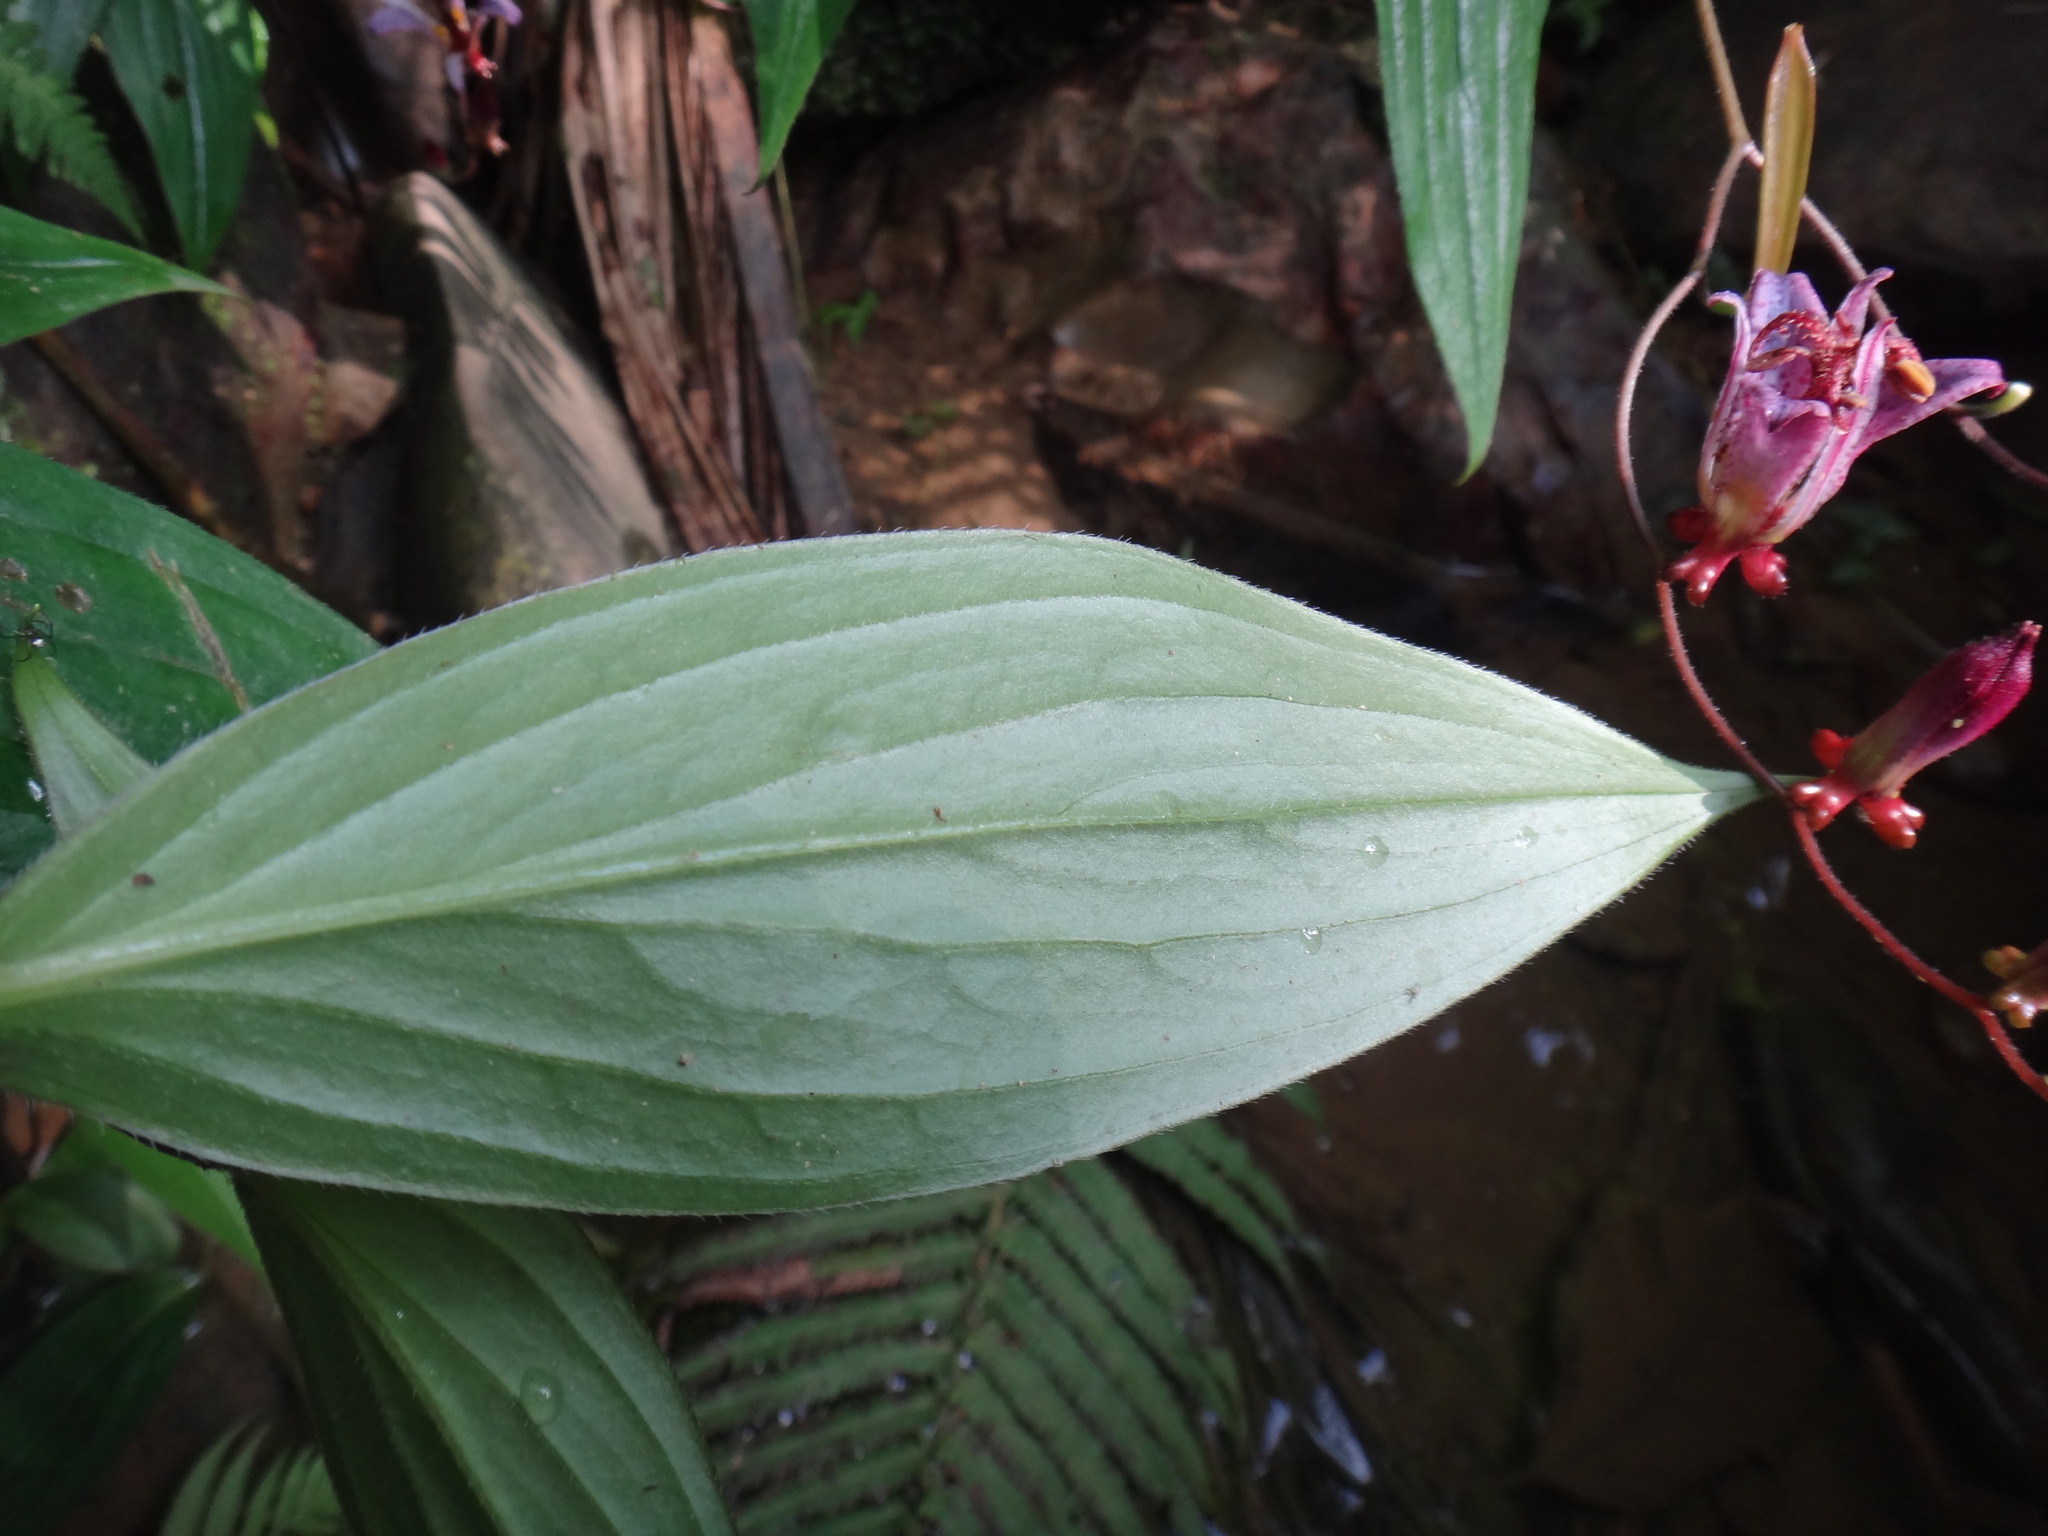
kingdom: Plantae
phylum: Tracheophyta
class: Liliopsida
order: Liliales
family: Liliaceae
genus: Tricyrtis
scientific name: Tricyrtis formosana
